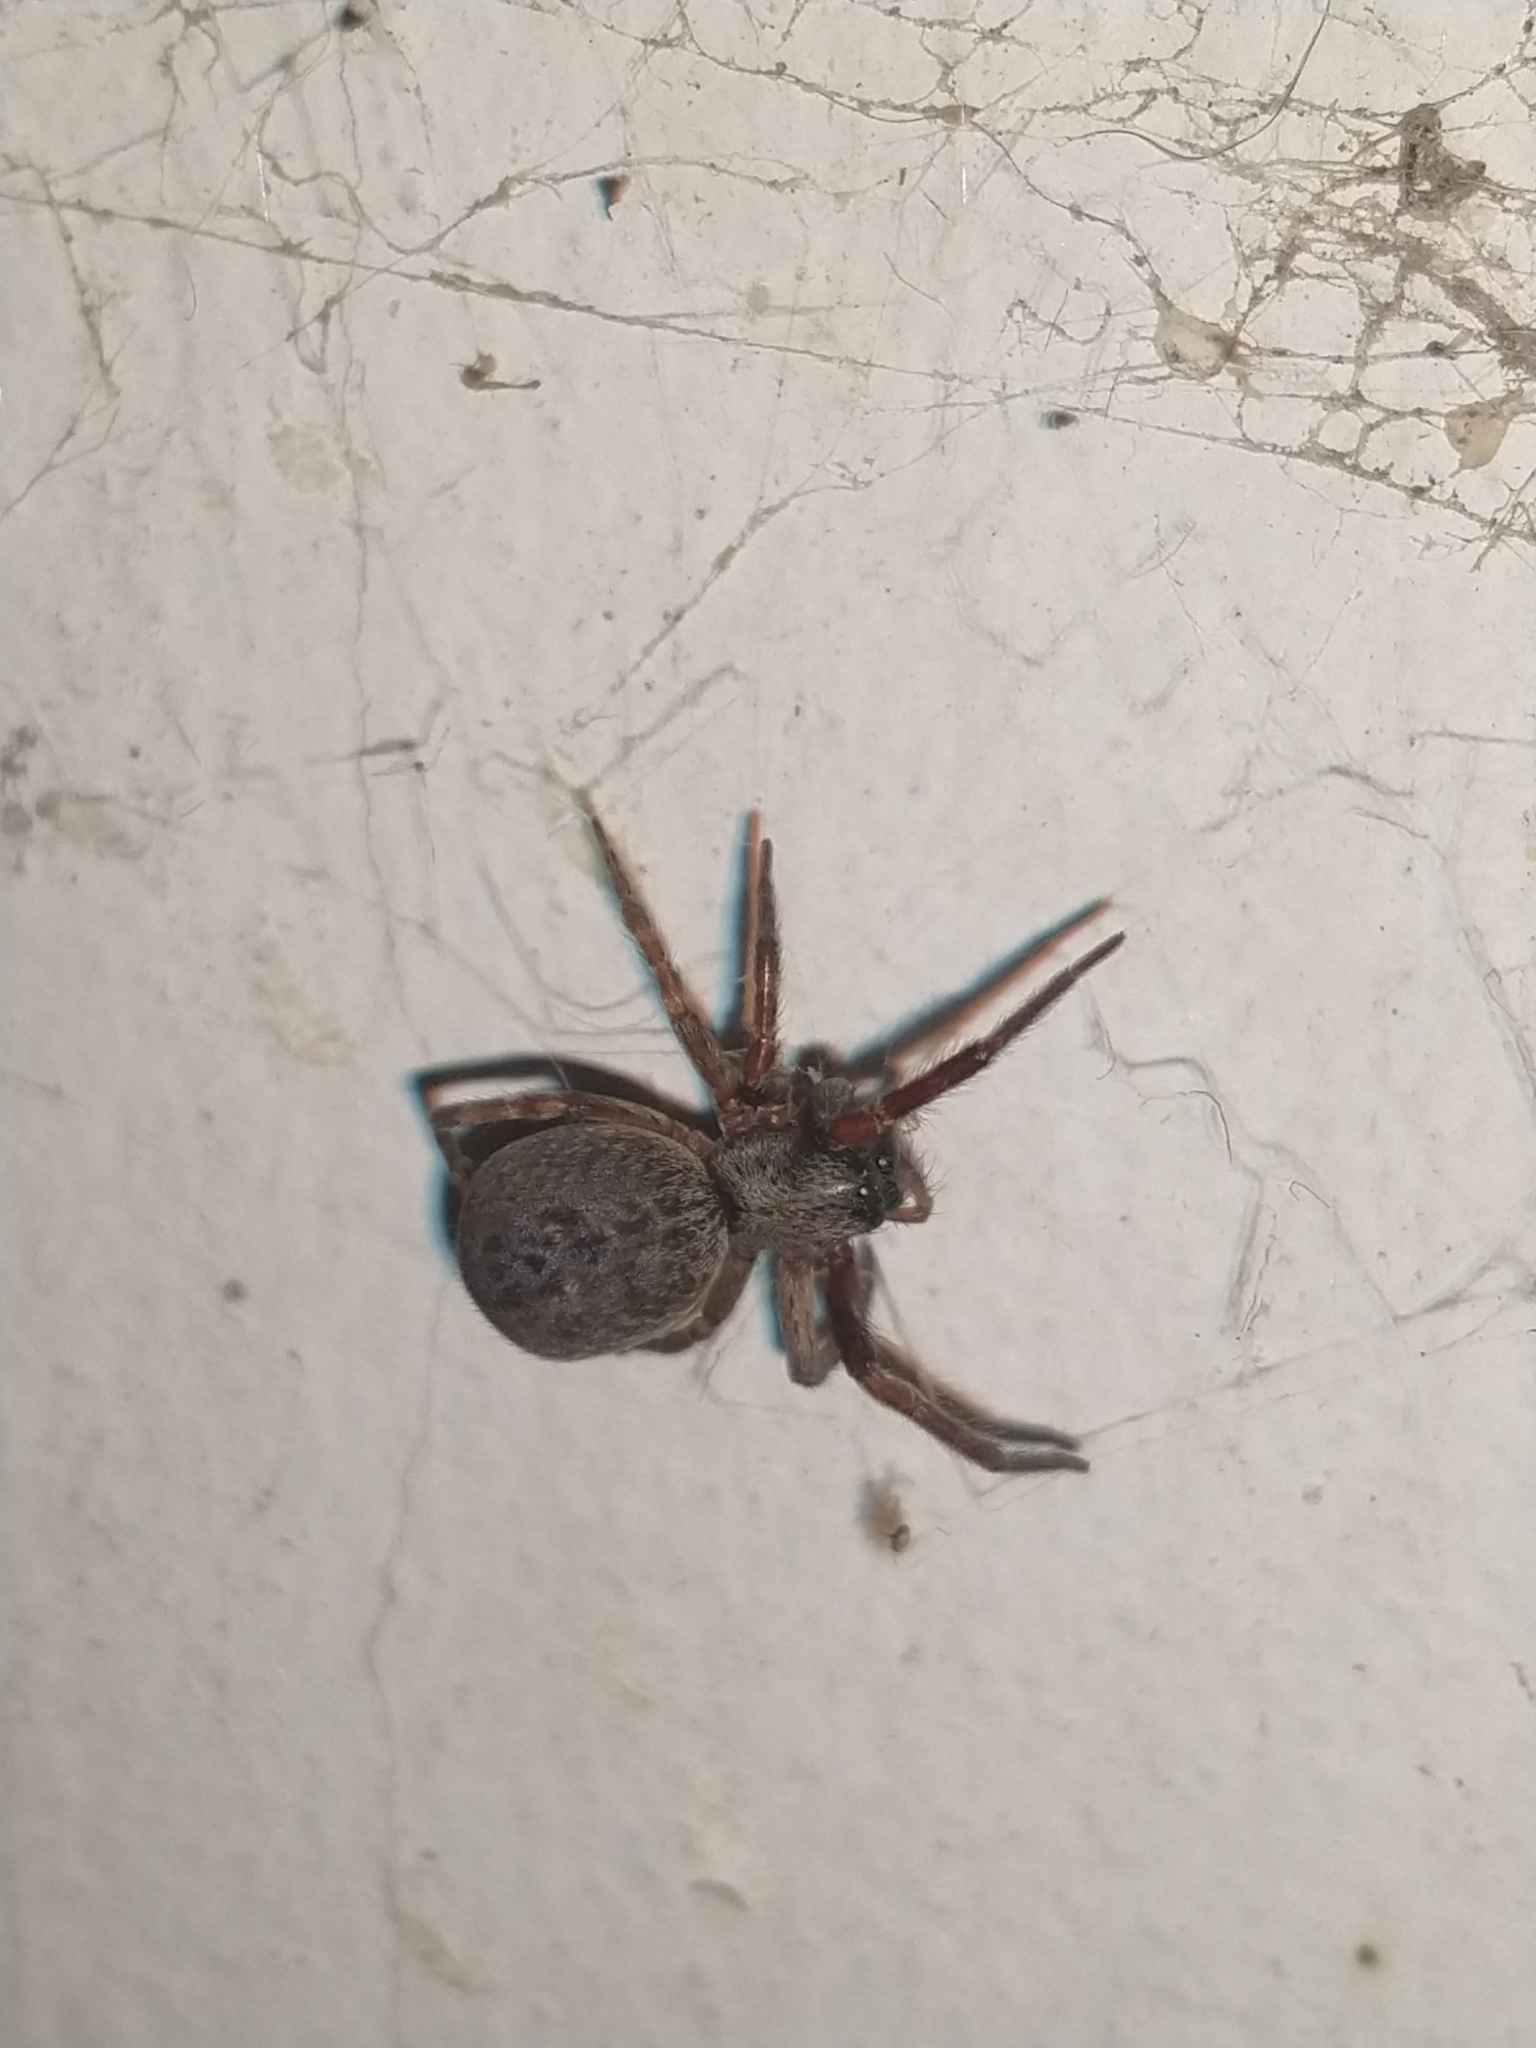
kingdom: Animalia
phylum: Arthropoda
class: Arachnida
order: Araneae
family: Desidae
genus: Badumna
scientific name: Badumna longinqua
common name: Gray house spider
